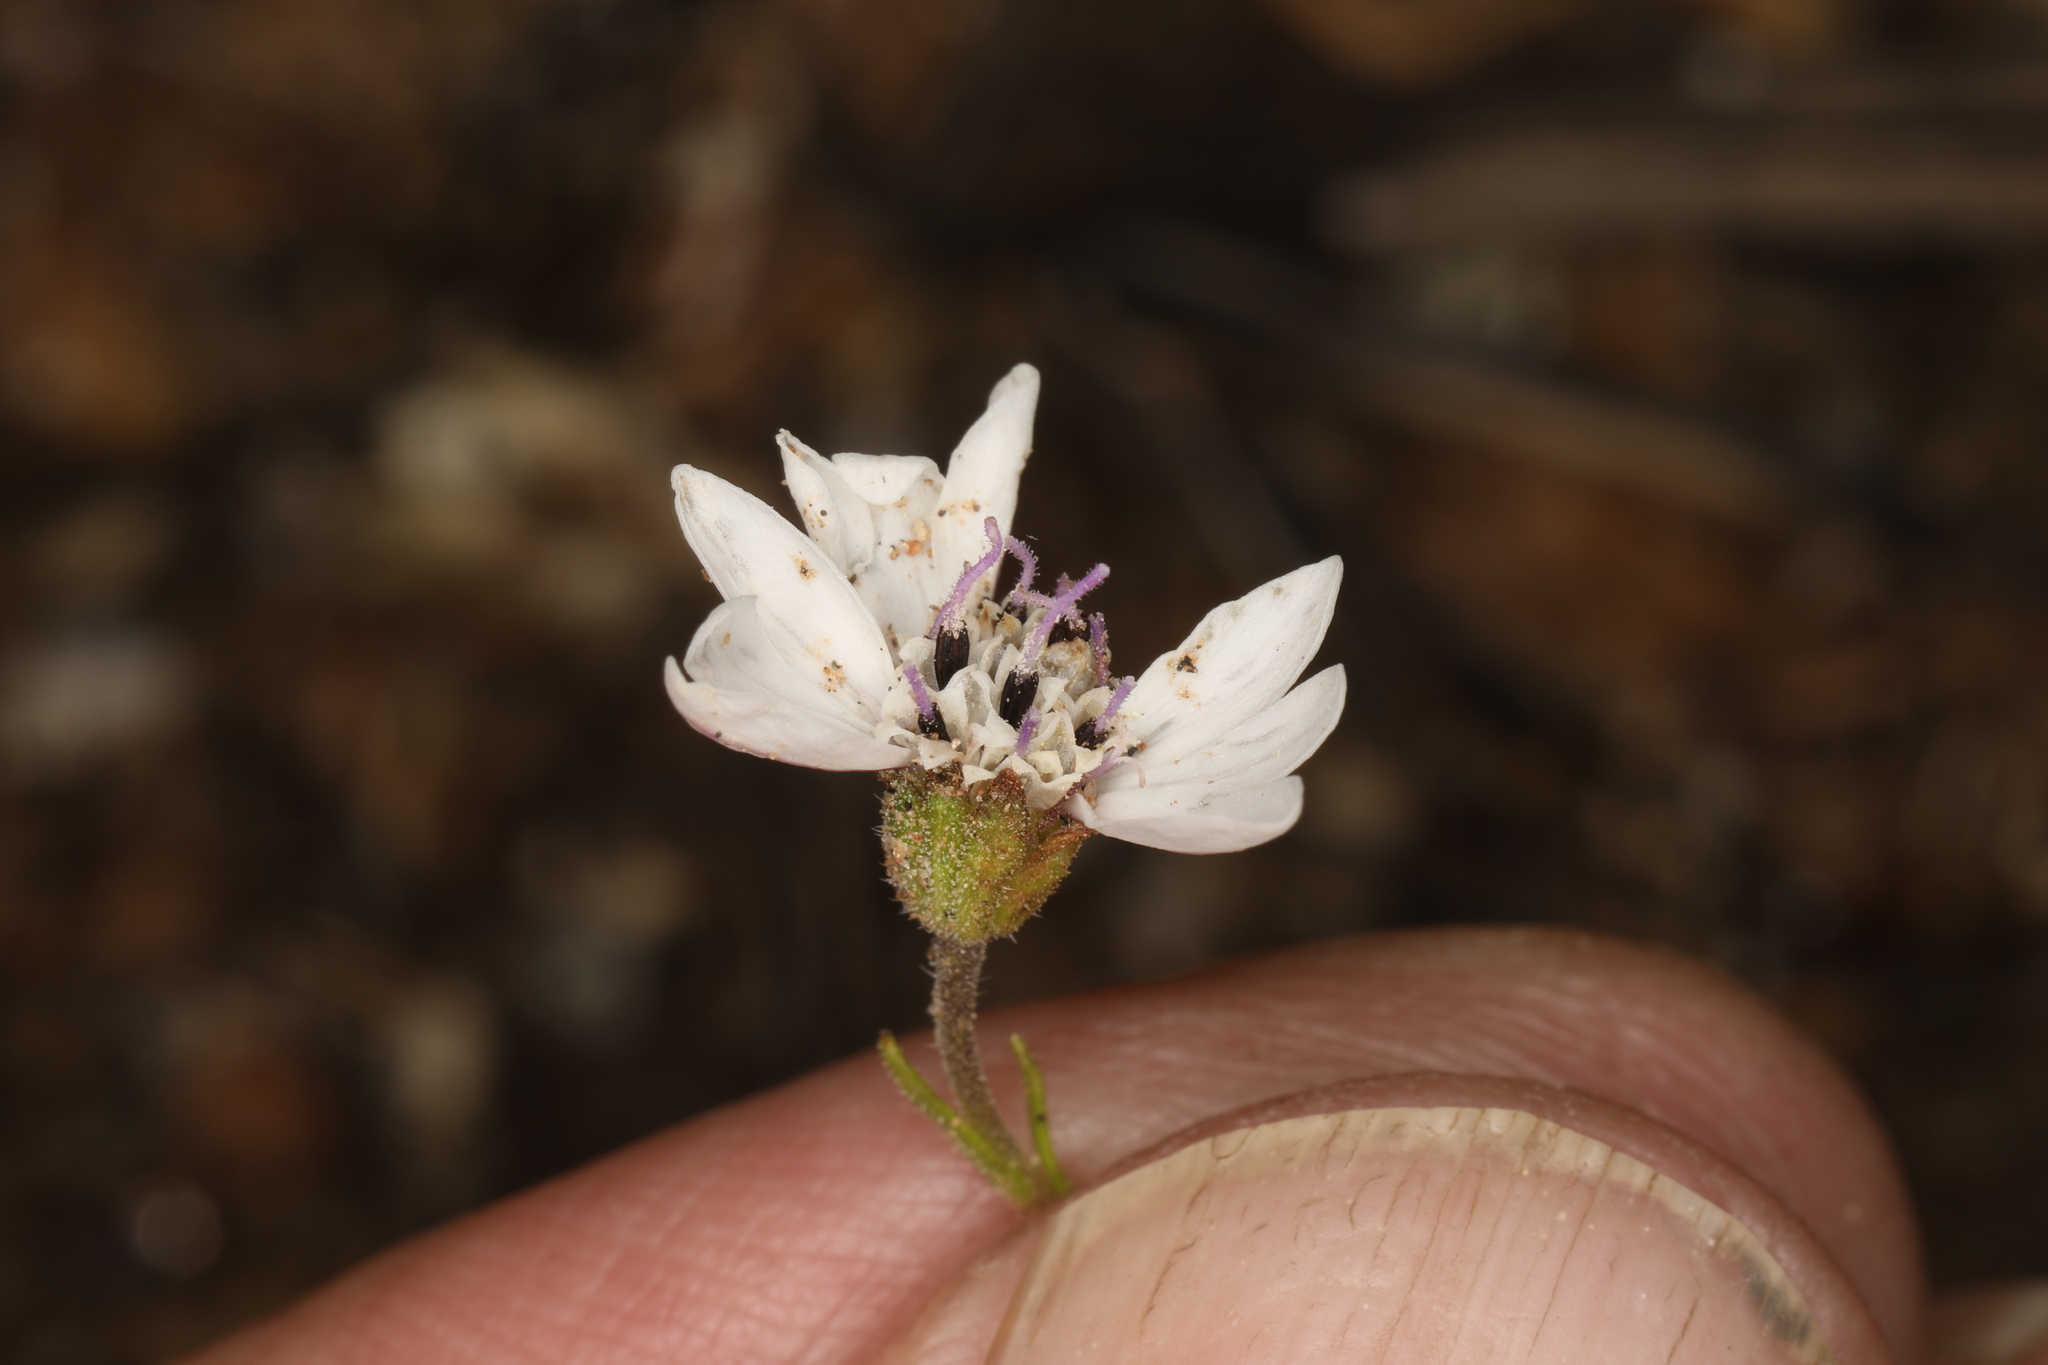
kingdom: Plantae
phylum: Tracheophyta
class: Magnoliopsida
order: Asterales
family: Asteraceae
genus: Blepharipappus
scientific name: Blepharipappus scaber
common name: Rough blepharipappus
